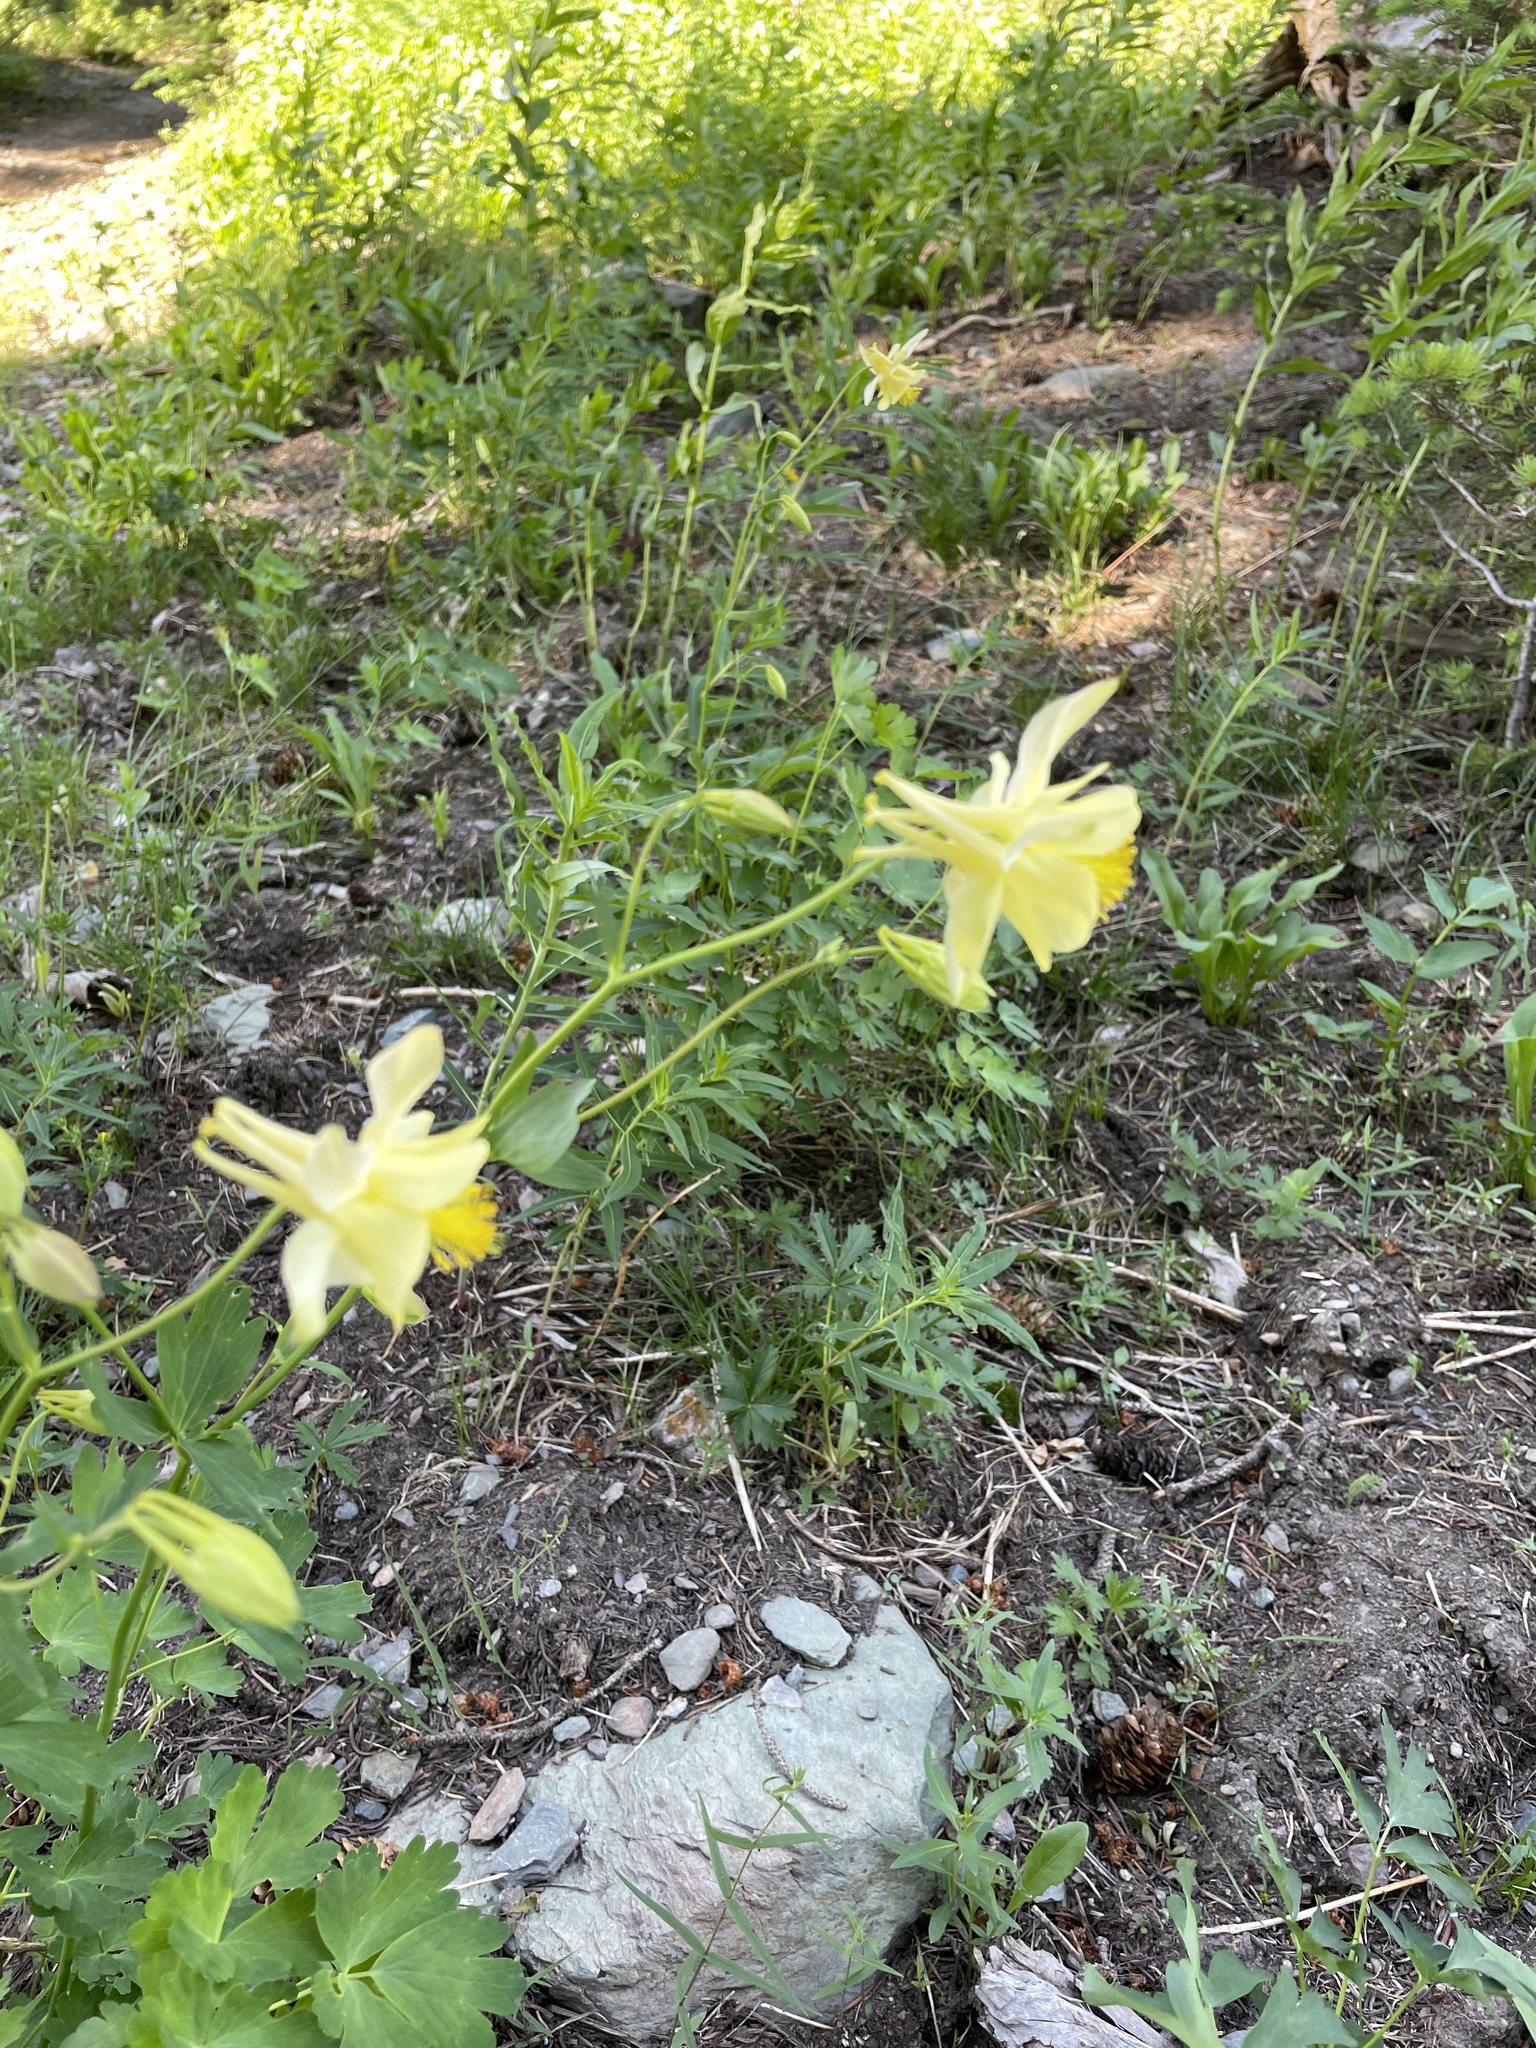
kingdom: Plantae
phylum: Tracheophyta
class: Magnoliopsida
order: Ranunculales
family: Ranunculaceae
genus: Aquilegia
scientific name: Aquilegia flavescens
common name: Yellow columbine
